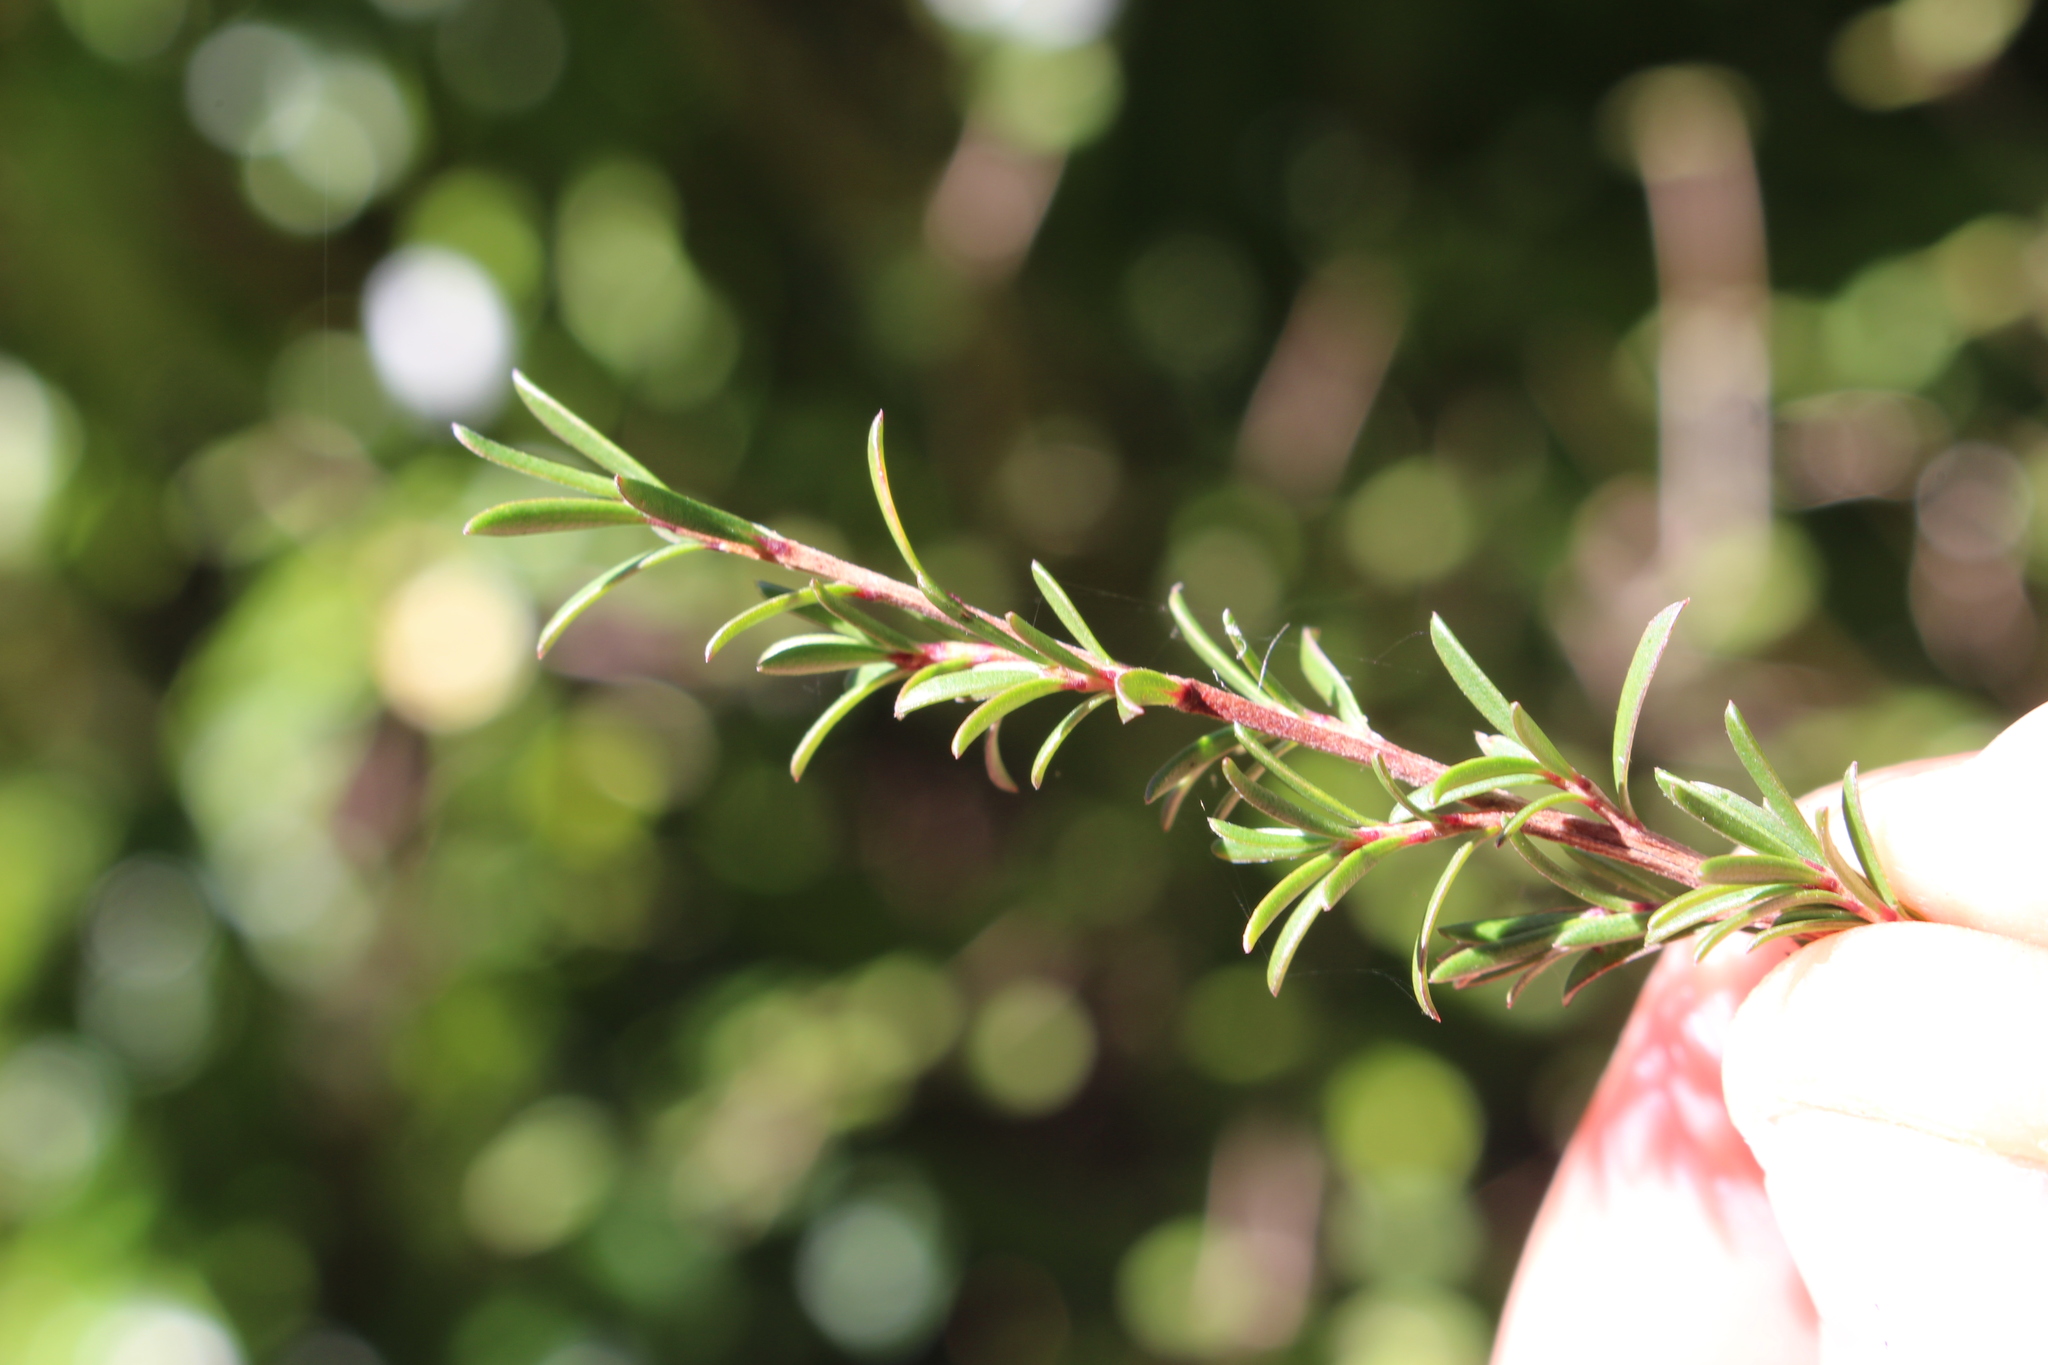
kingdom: Plantae
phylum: Tracheophyta
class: Magnoliopsida
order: Myrtales
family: Myrtaceae
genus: Kunzea
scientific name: Kunzea robusta
